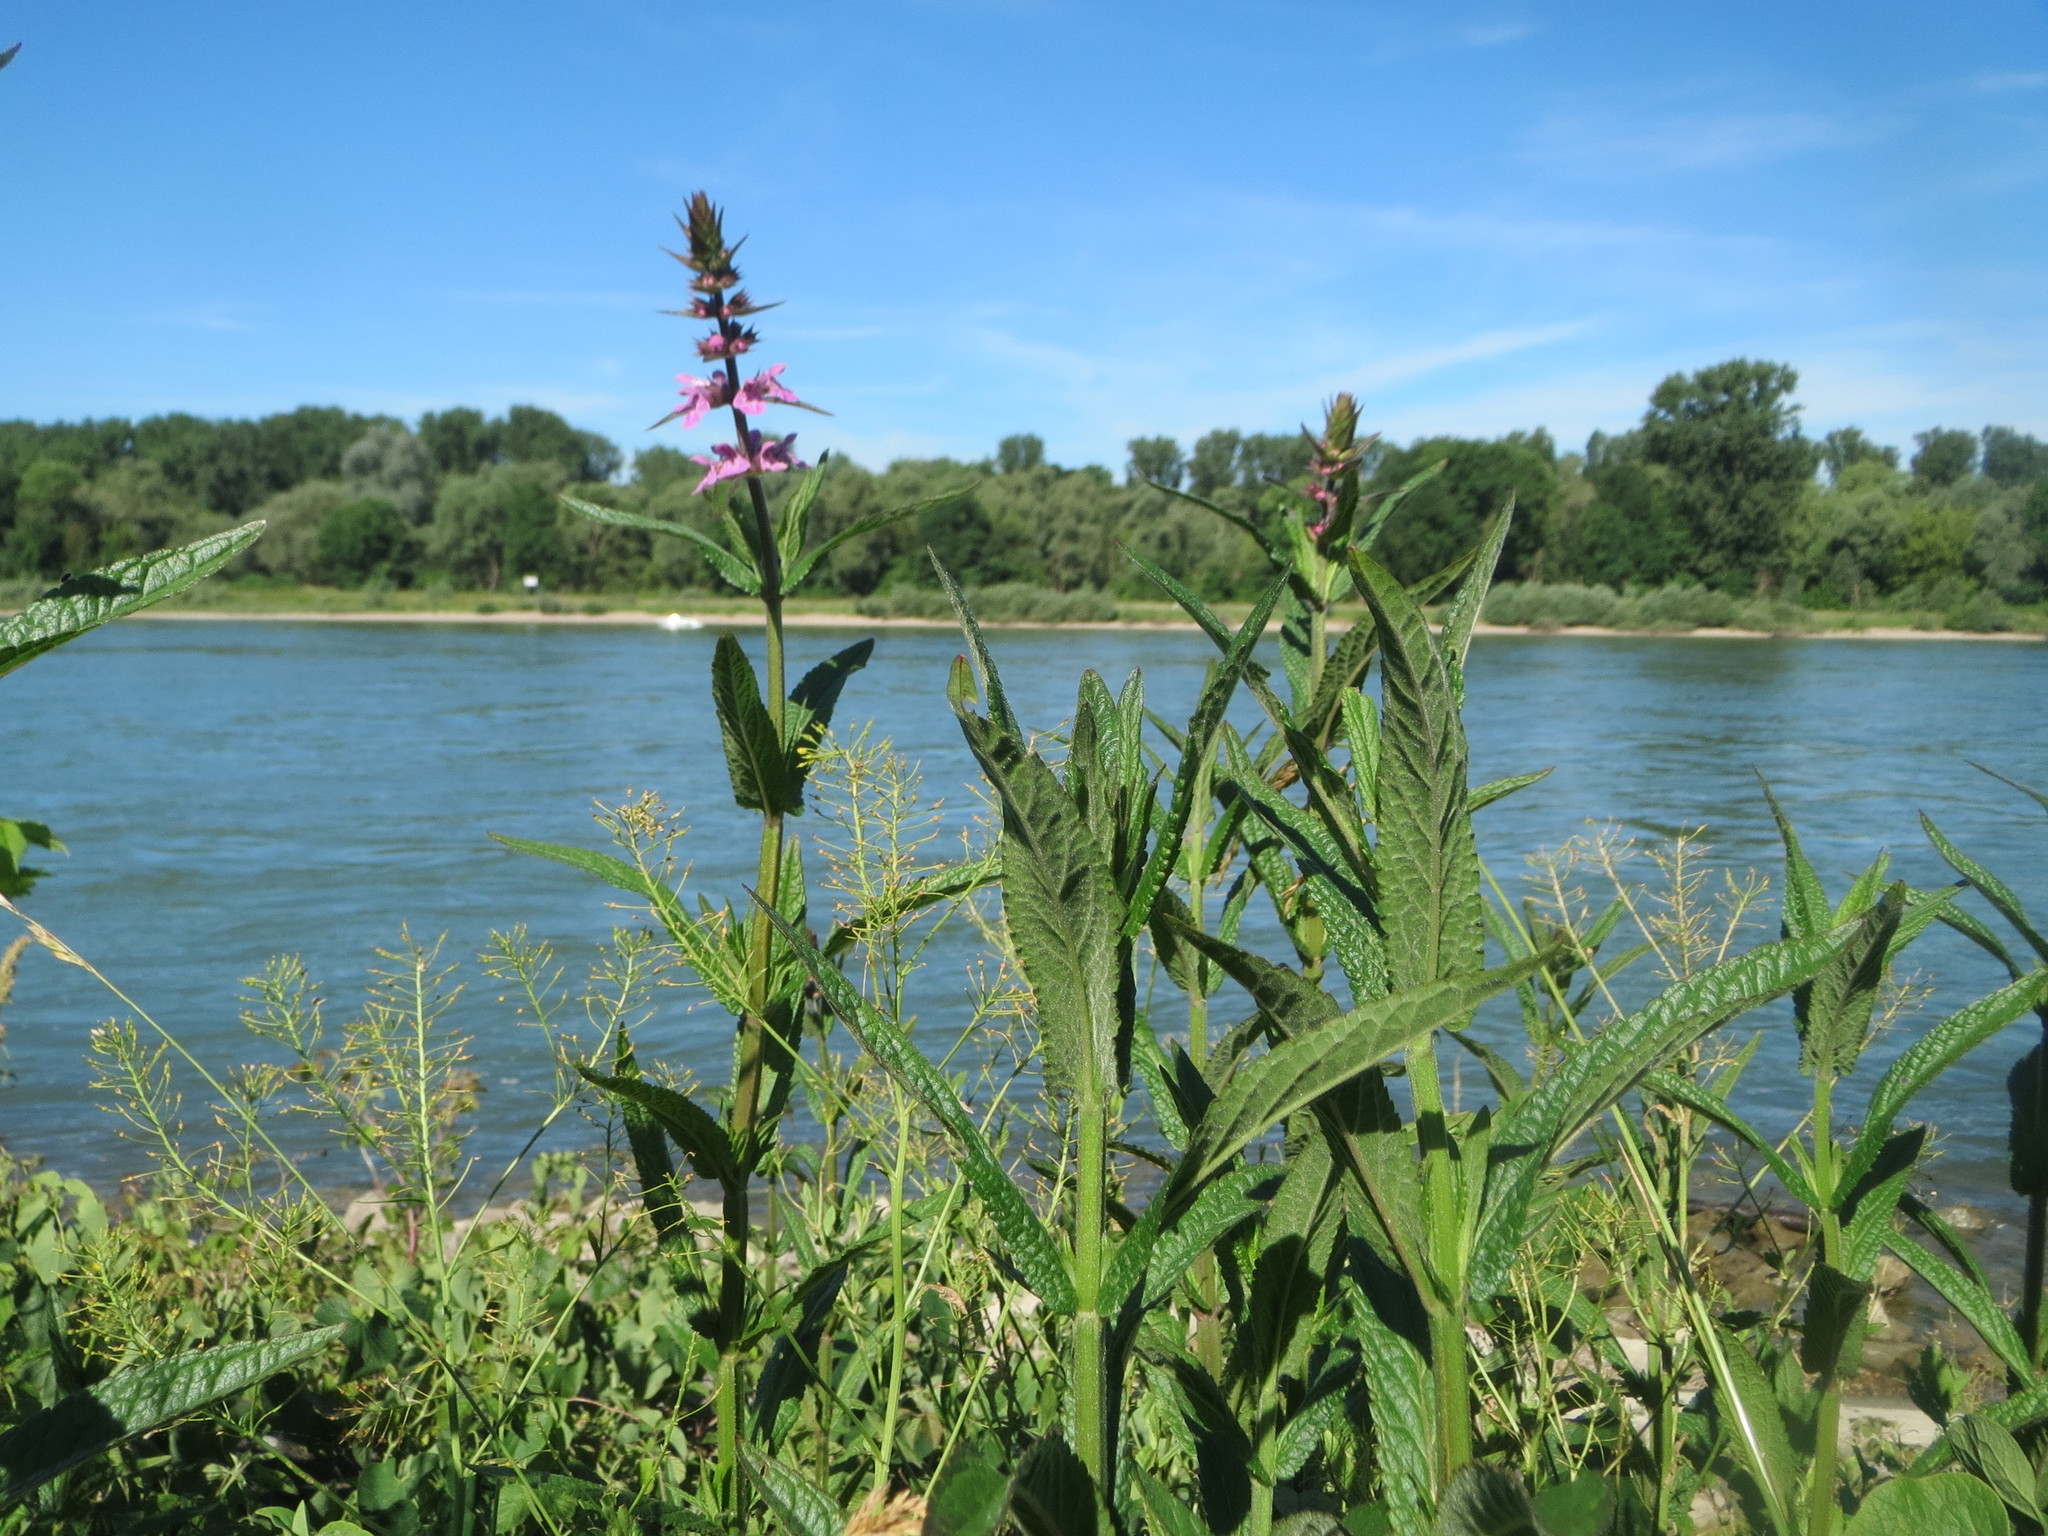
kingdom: Plantae
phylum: Tracheophyta
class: Magnoliopsida
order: Lamiales
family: Lamiaceae
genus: Stachys
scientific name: Stachys palustris
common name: Marsh woundwort
